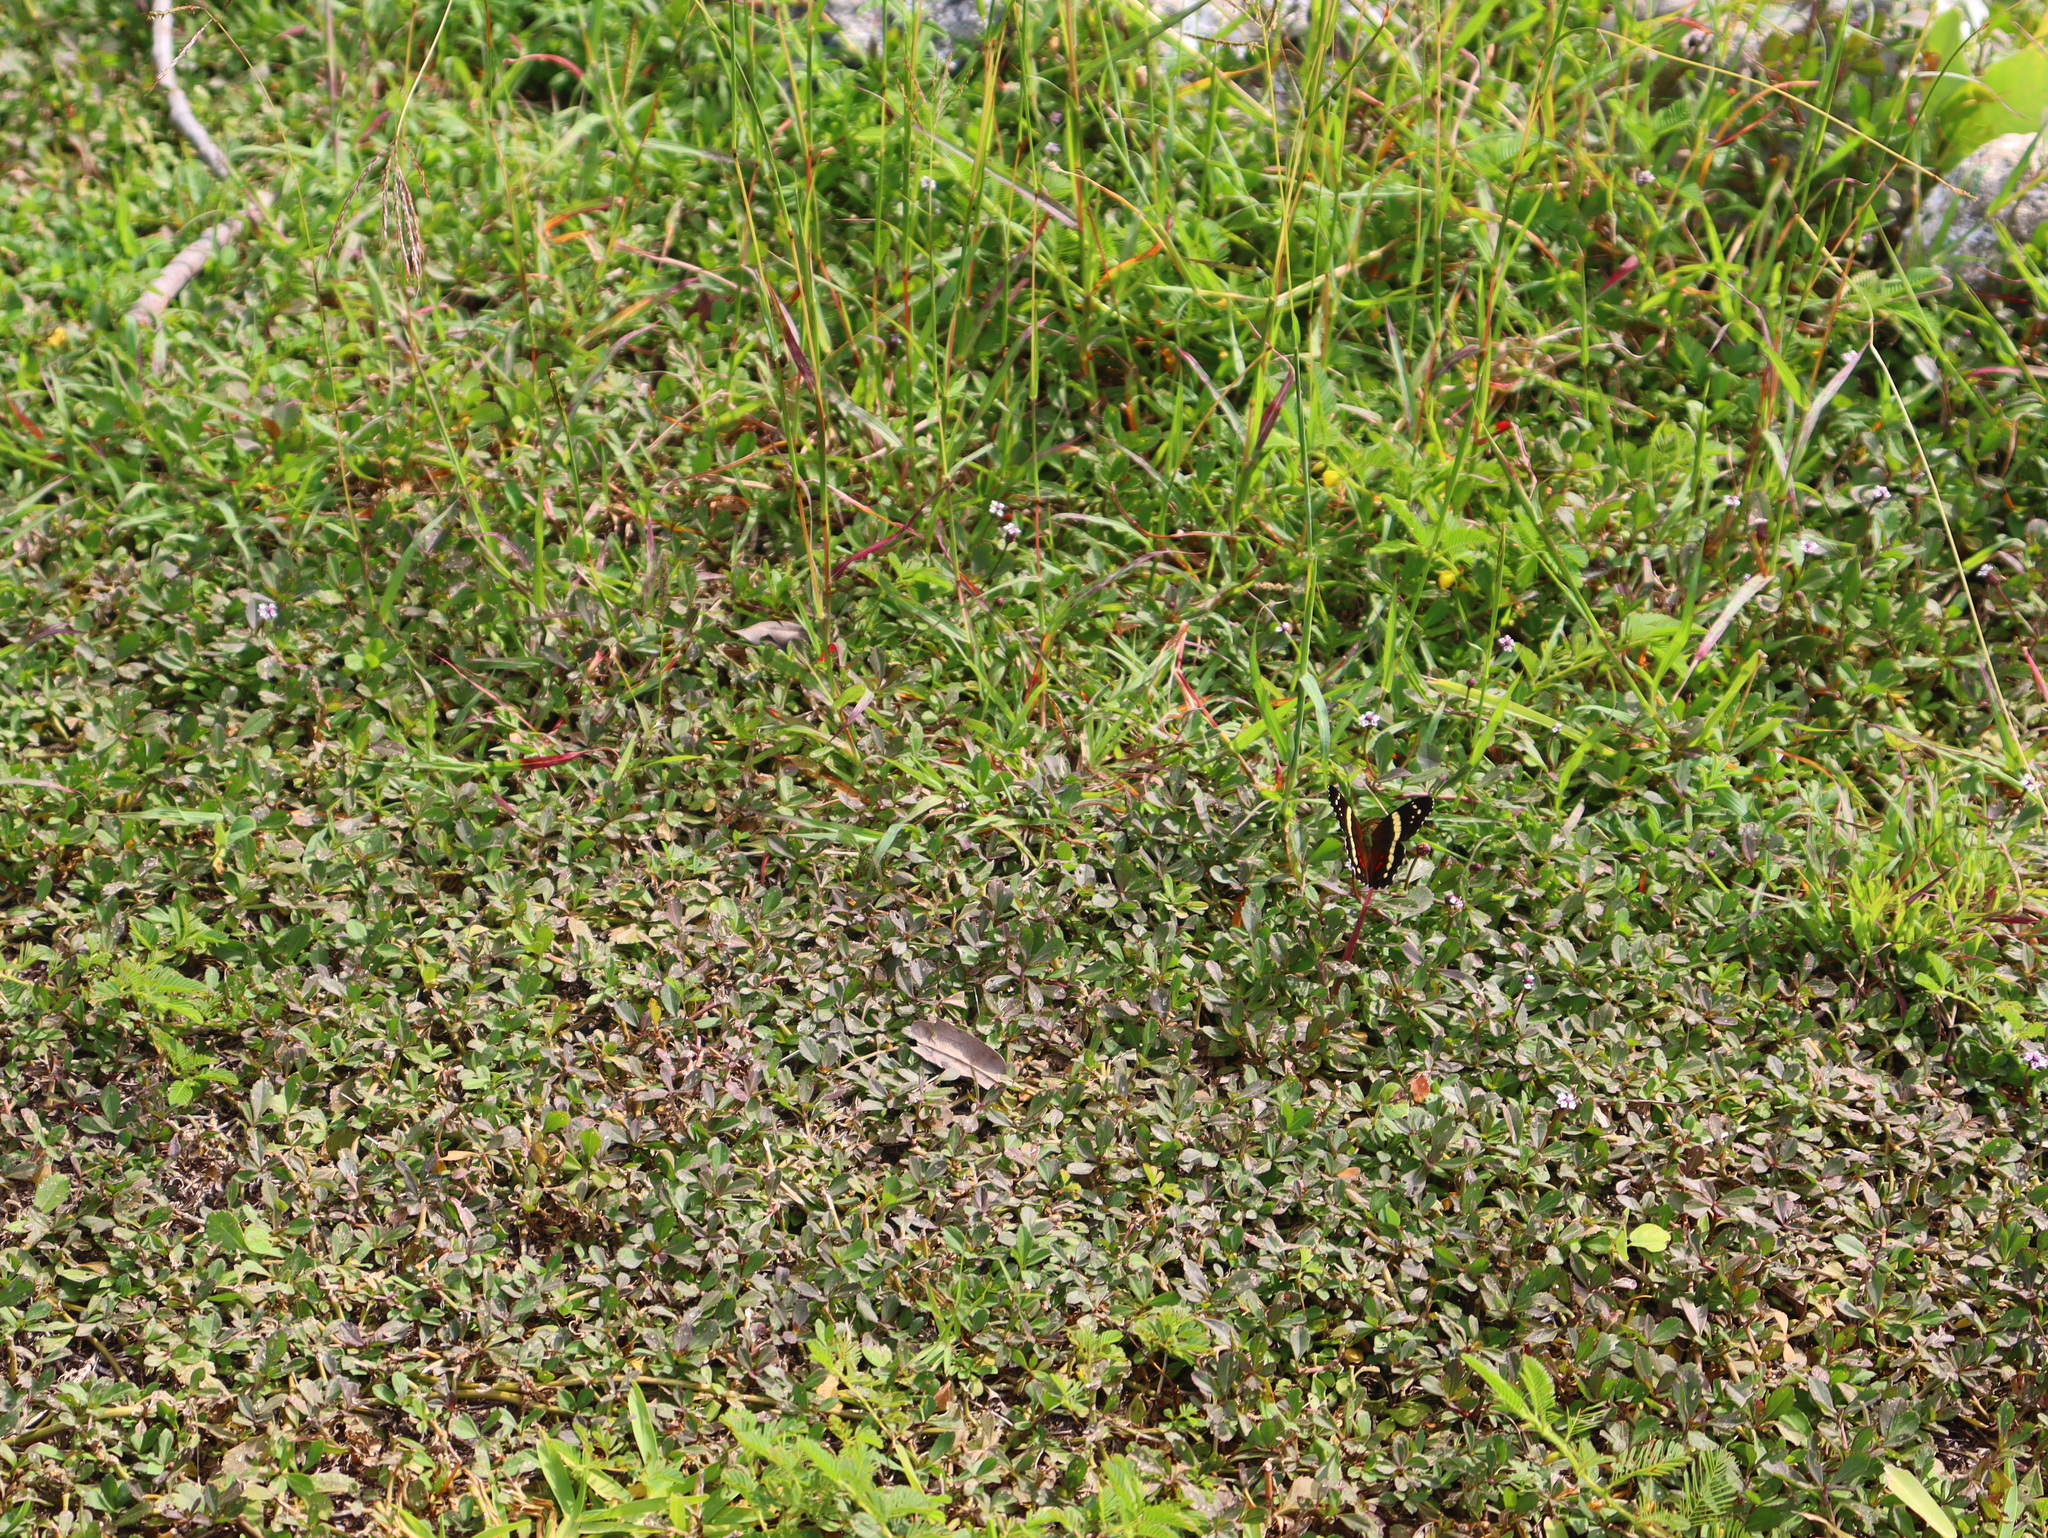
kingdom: Animalia
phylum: Arthropoda
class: Insecta
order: Lepidoptera
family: Nymphalidae
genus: Anartia
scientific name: Anartia fatima
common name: Banded peacock
